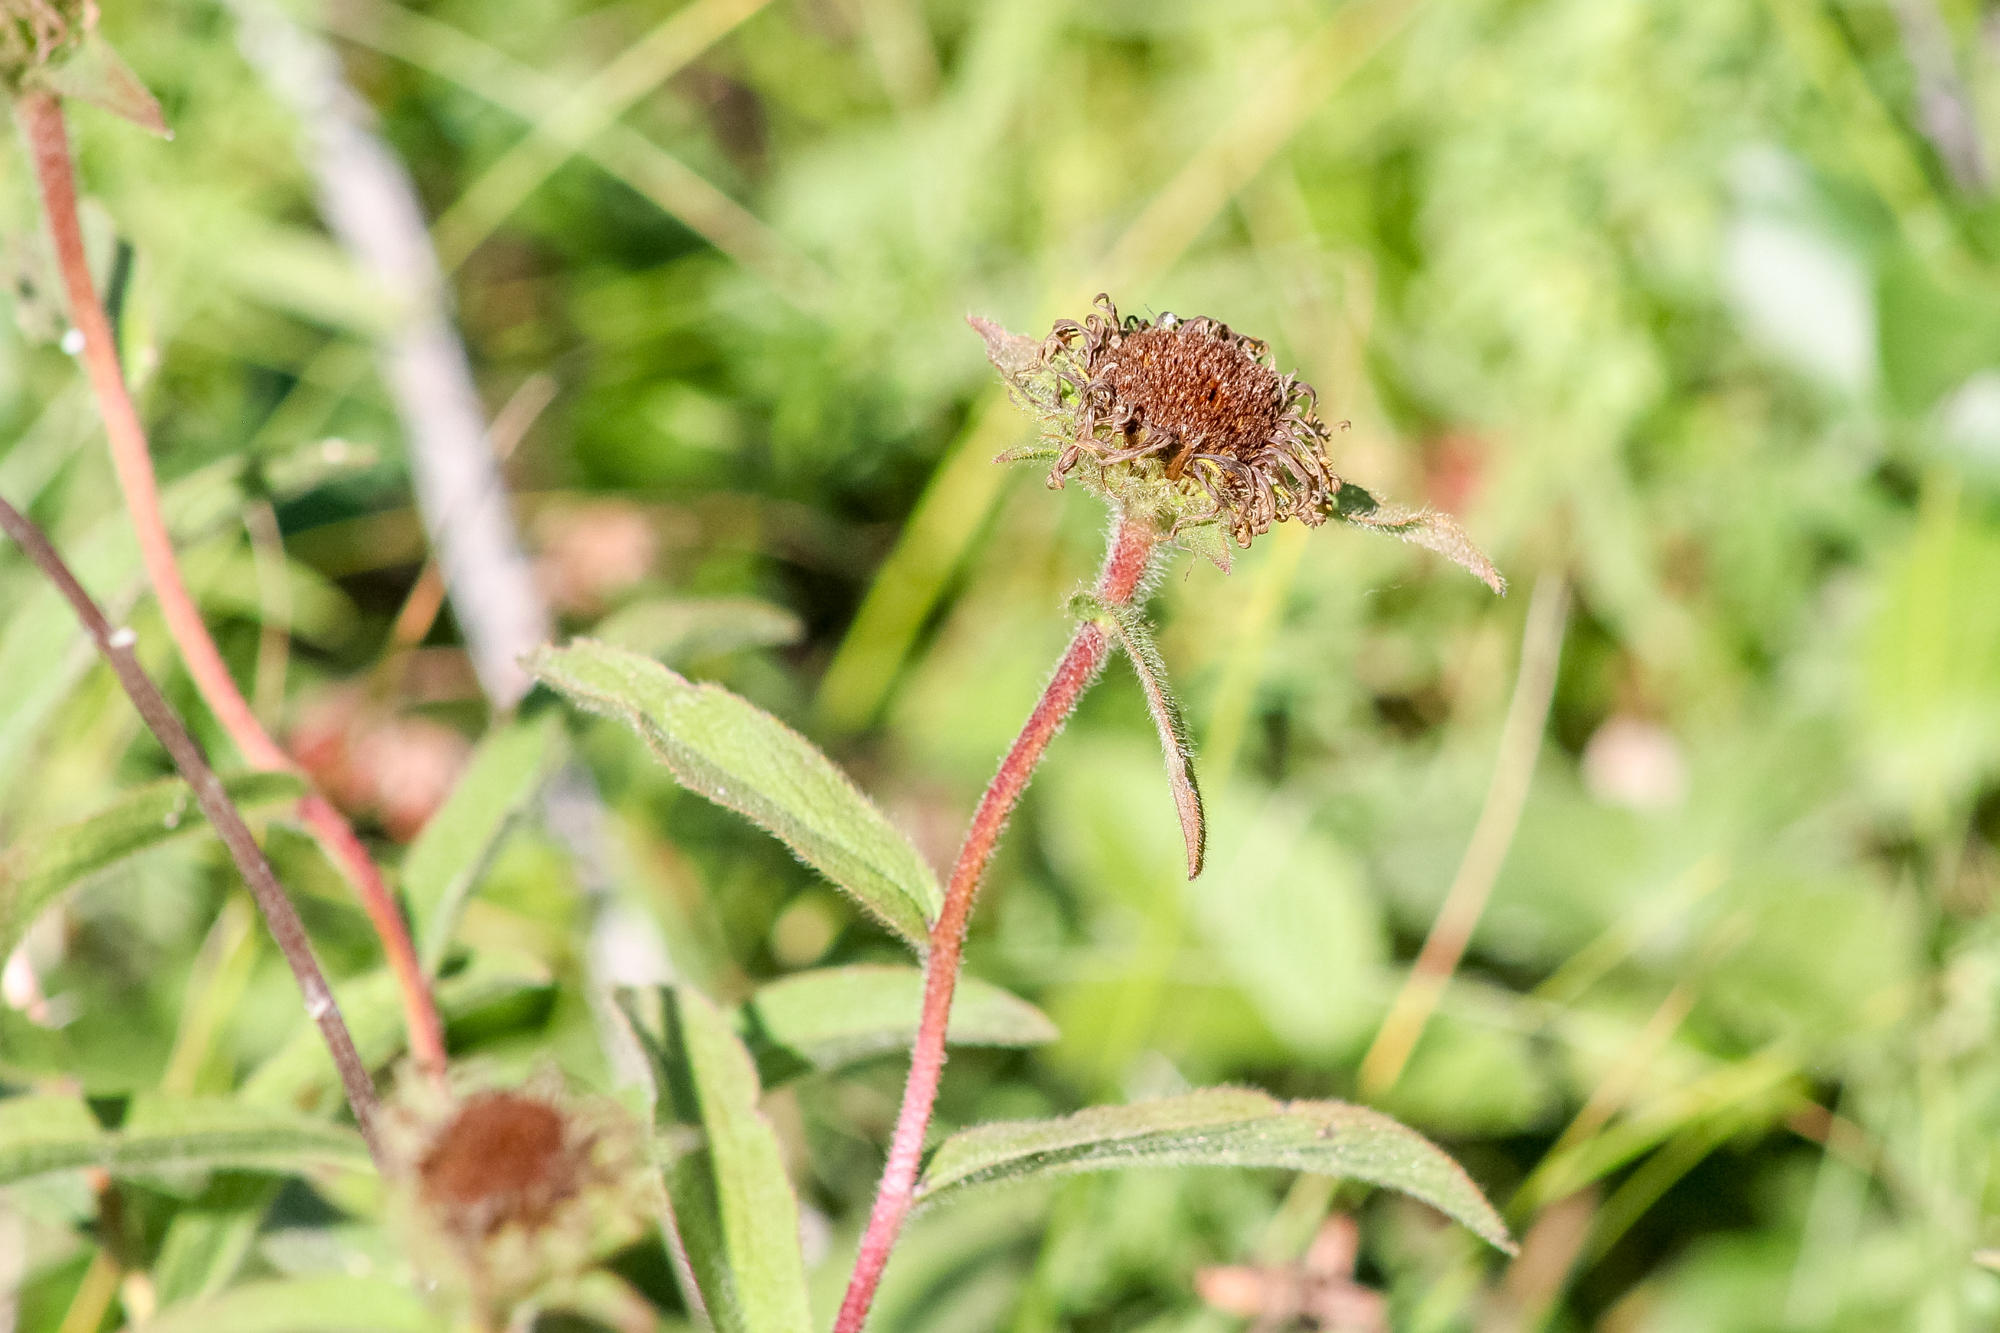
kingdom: Plantae
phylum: Tracheophyta
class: Magnoliopsida
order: Asterales
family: Asteraceae
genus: Pentanema
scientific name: Pentanema hirtum
